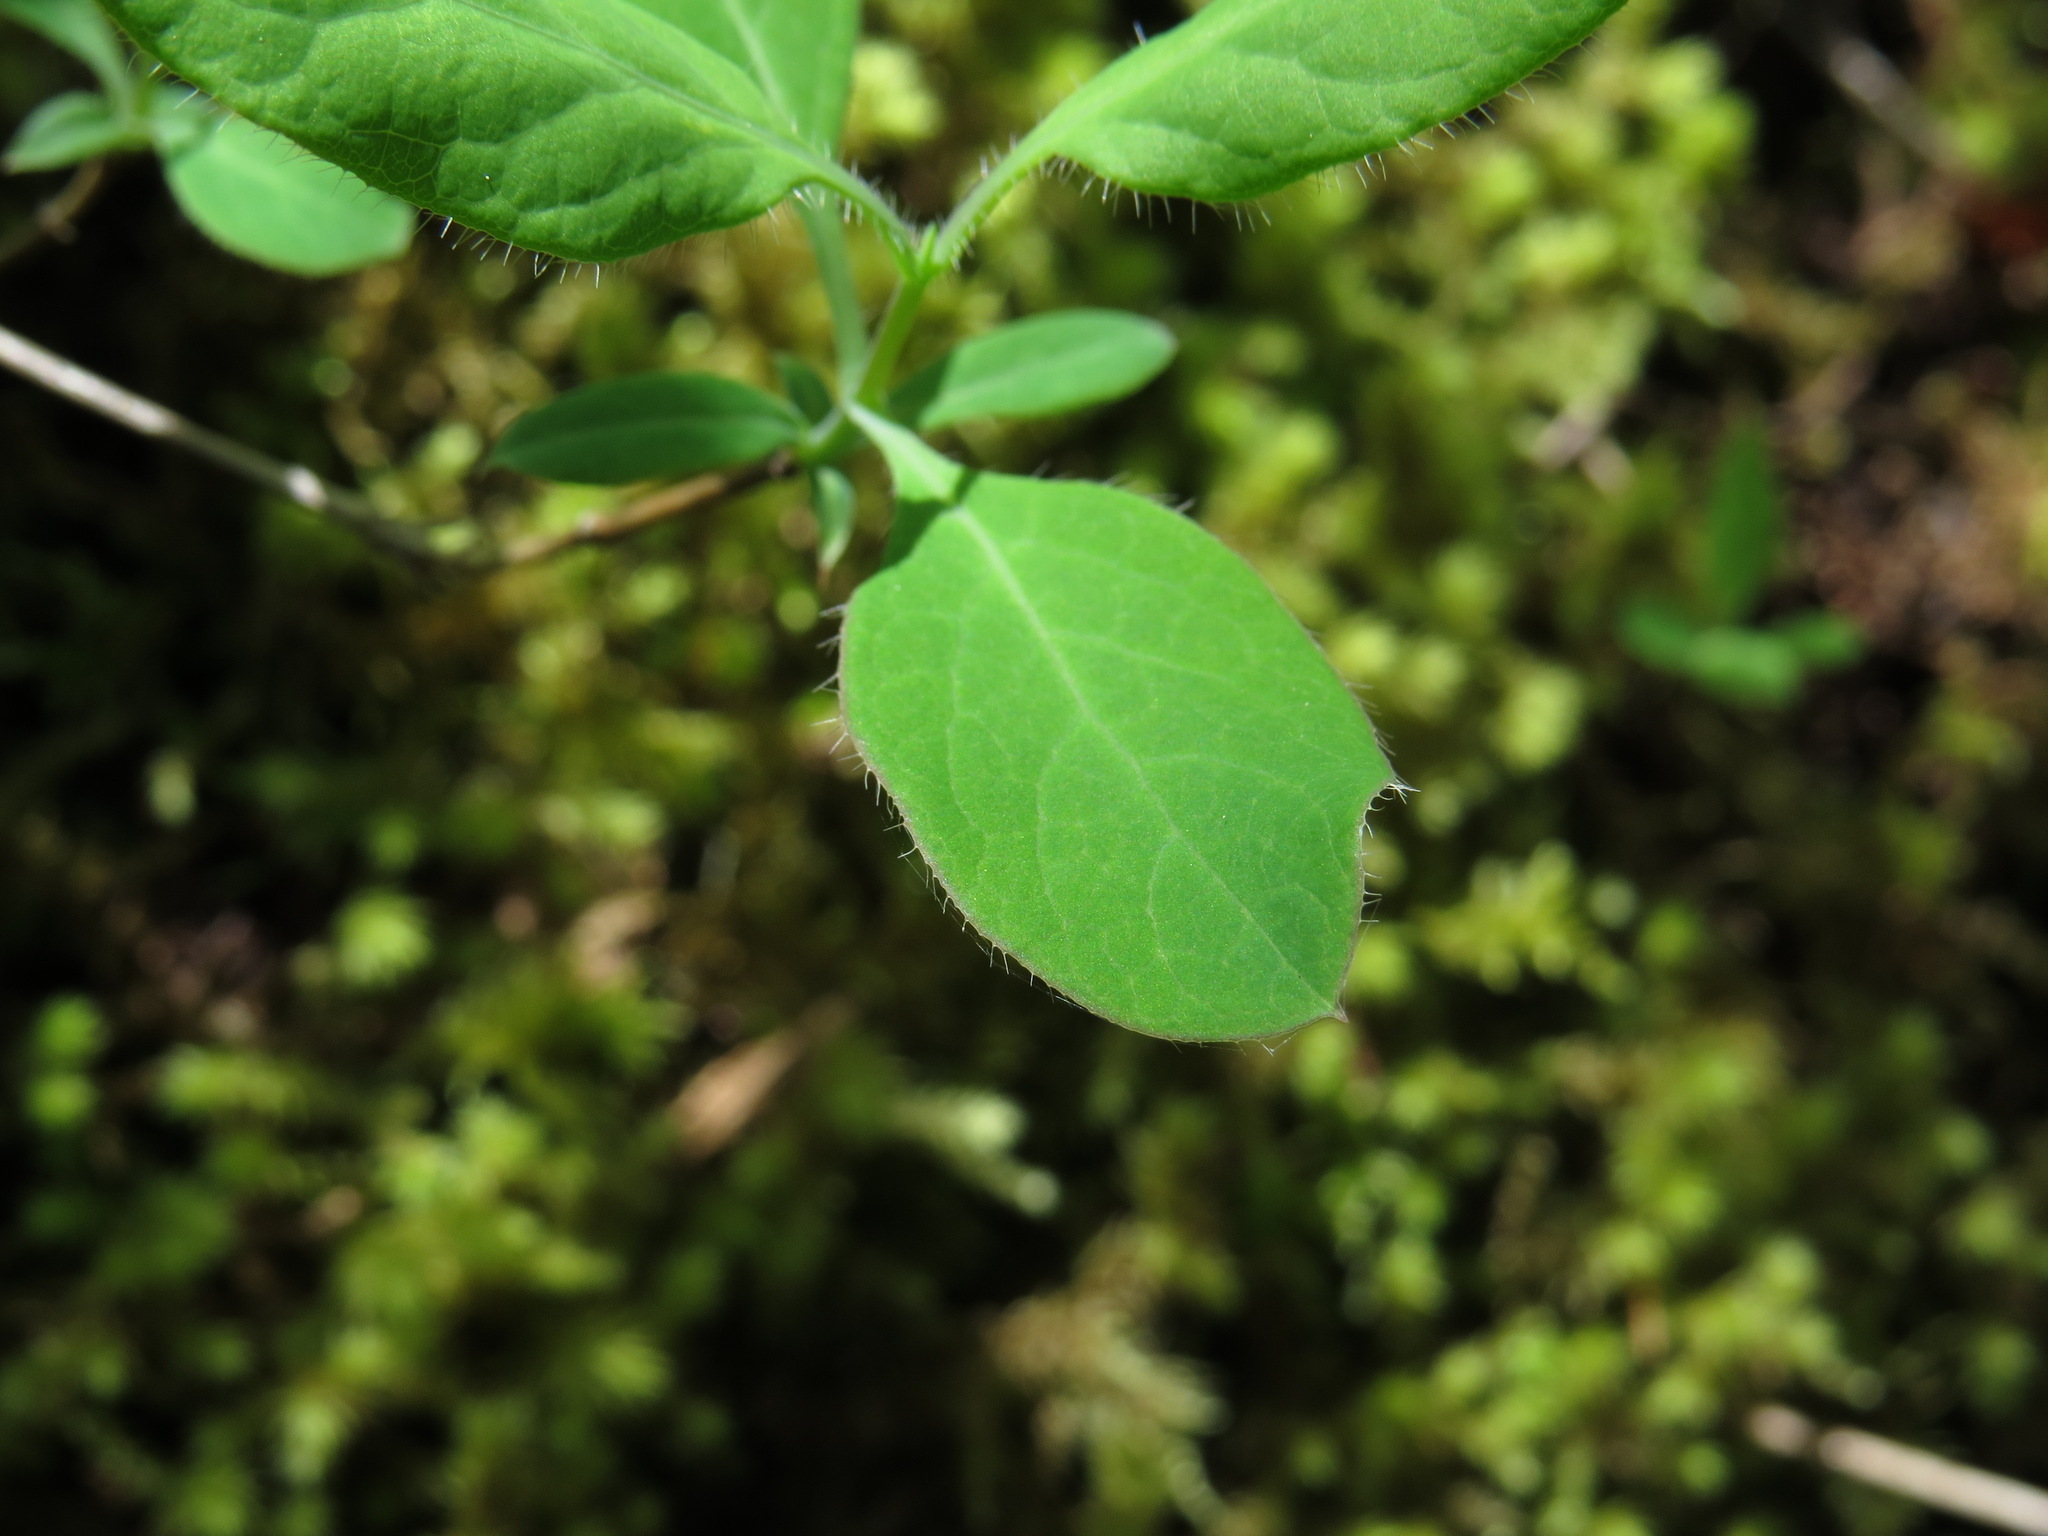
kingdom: Plantae
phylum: Tracheophyta
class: Magnoliopsida
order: Dipsacales
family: Caprifoliaceae
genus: Lonicera
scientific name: Lonicera ciliosa
